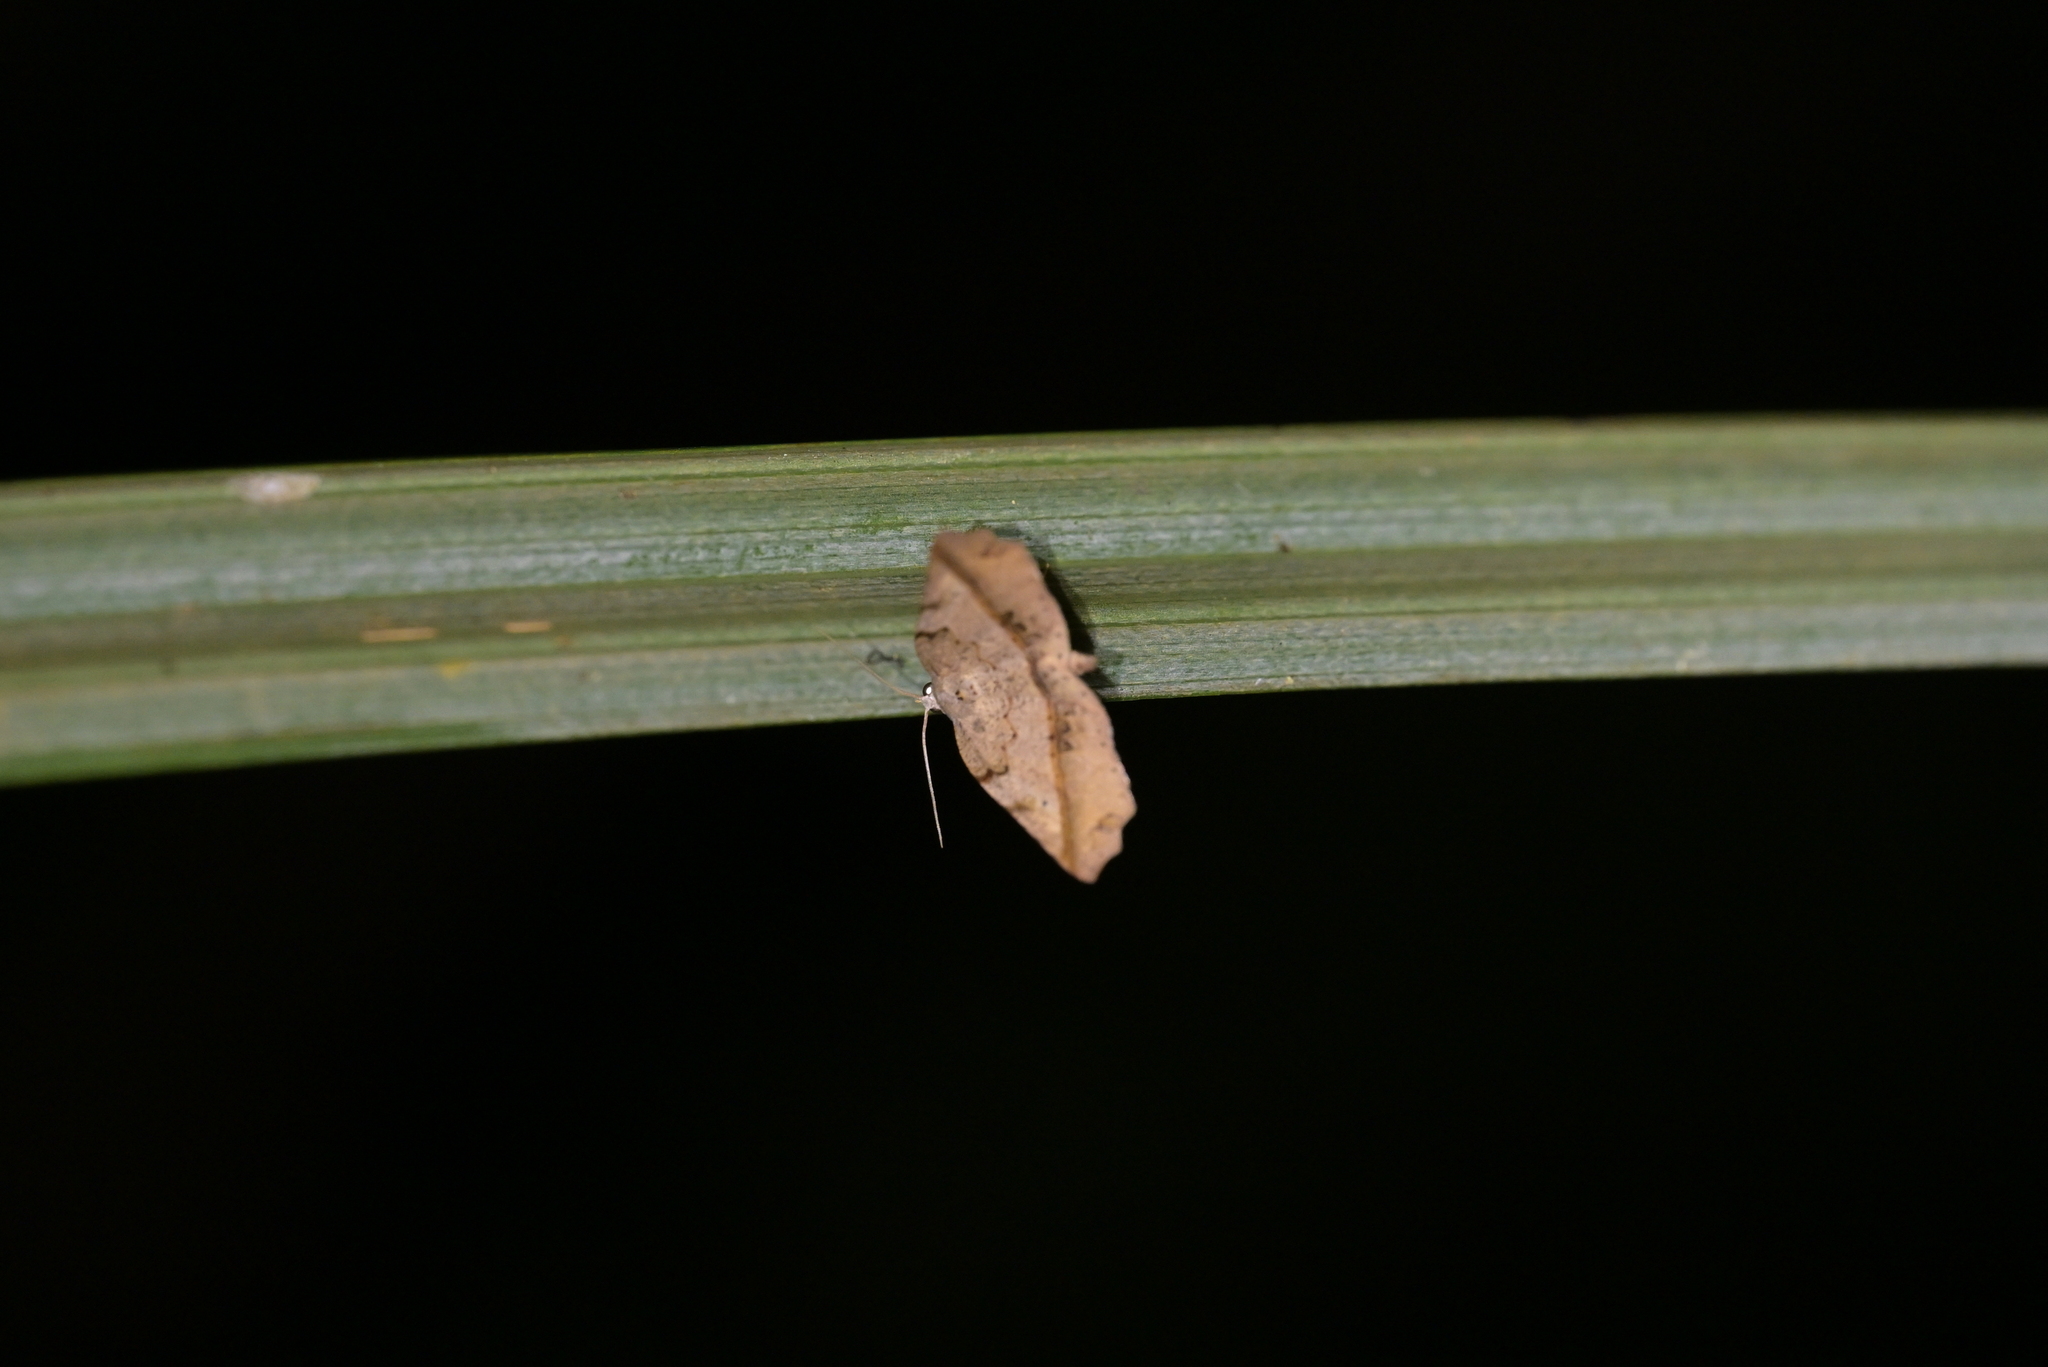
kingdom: Animalia
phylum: Arthropoda
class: Insecta
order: Lepidoptera
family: Geometridae
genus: Ischalis
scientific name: Ischalis gallaria
